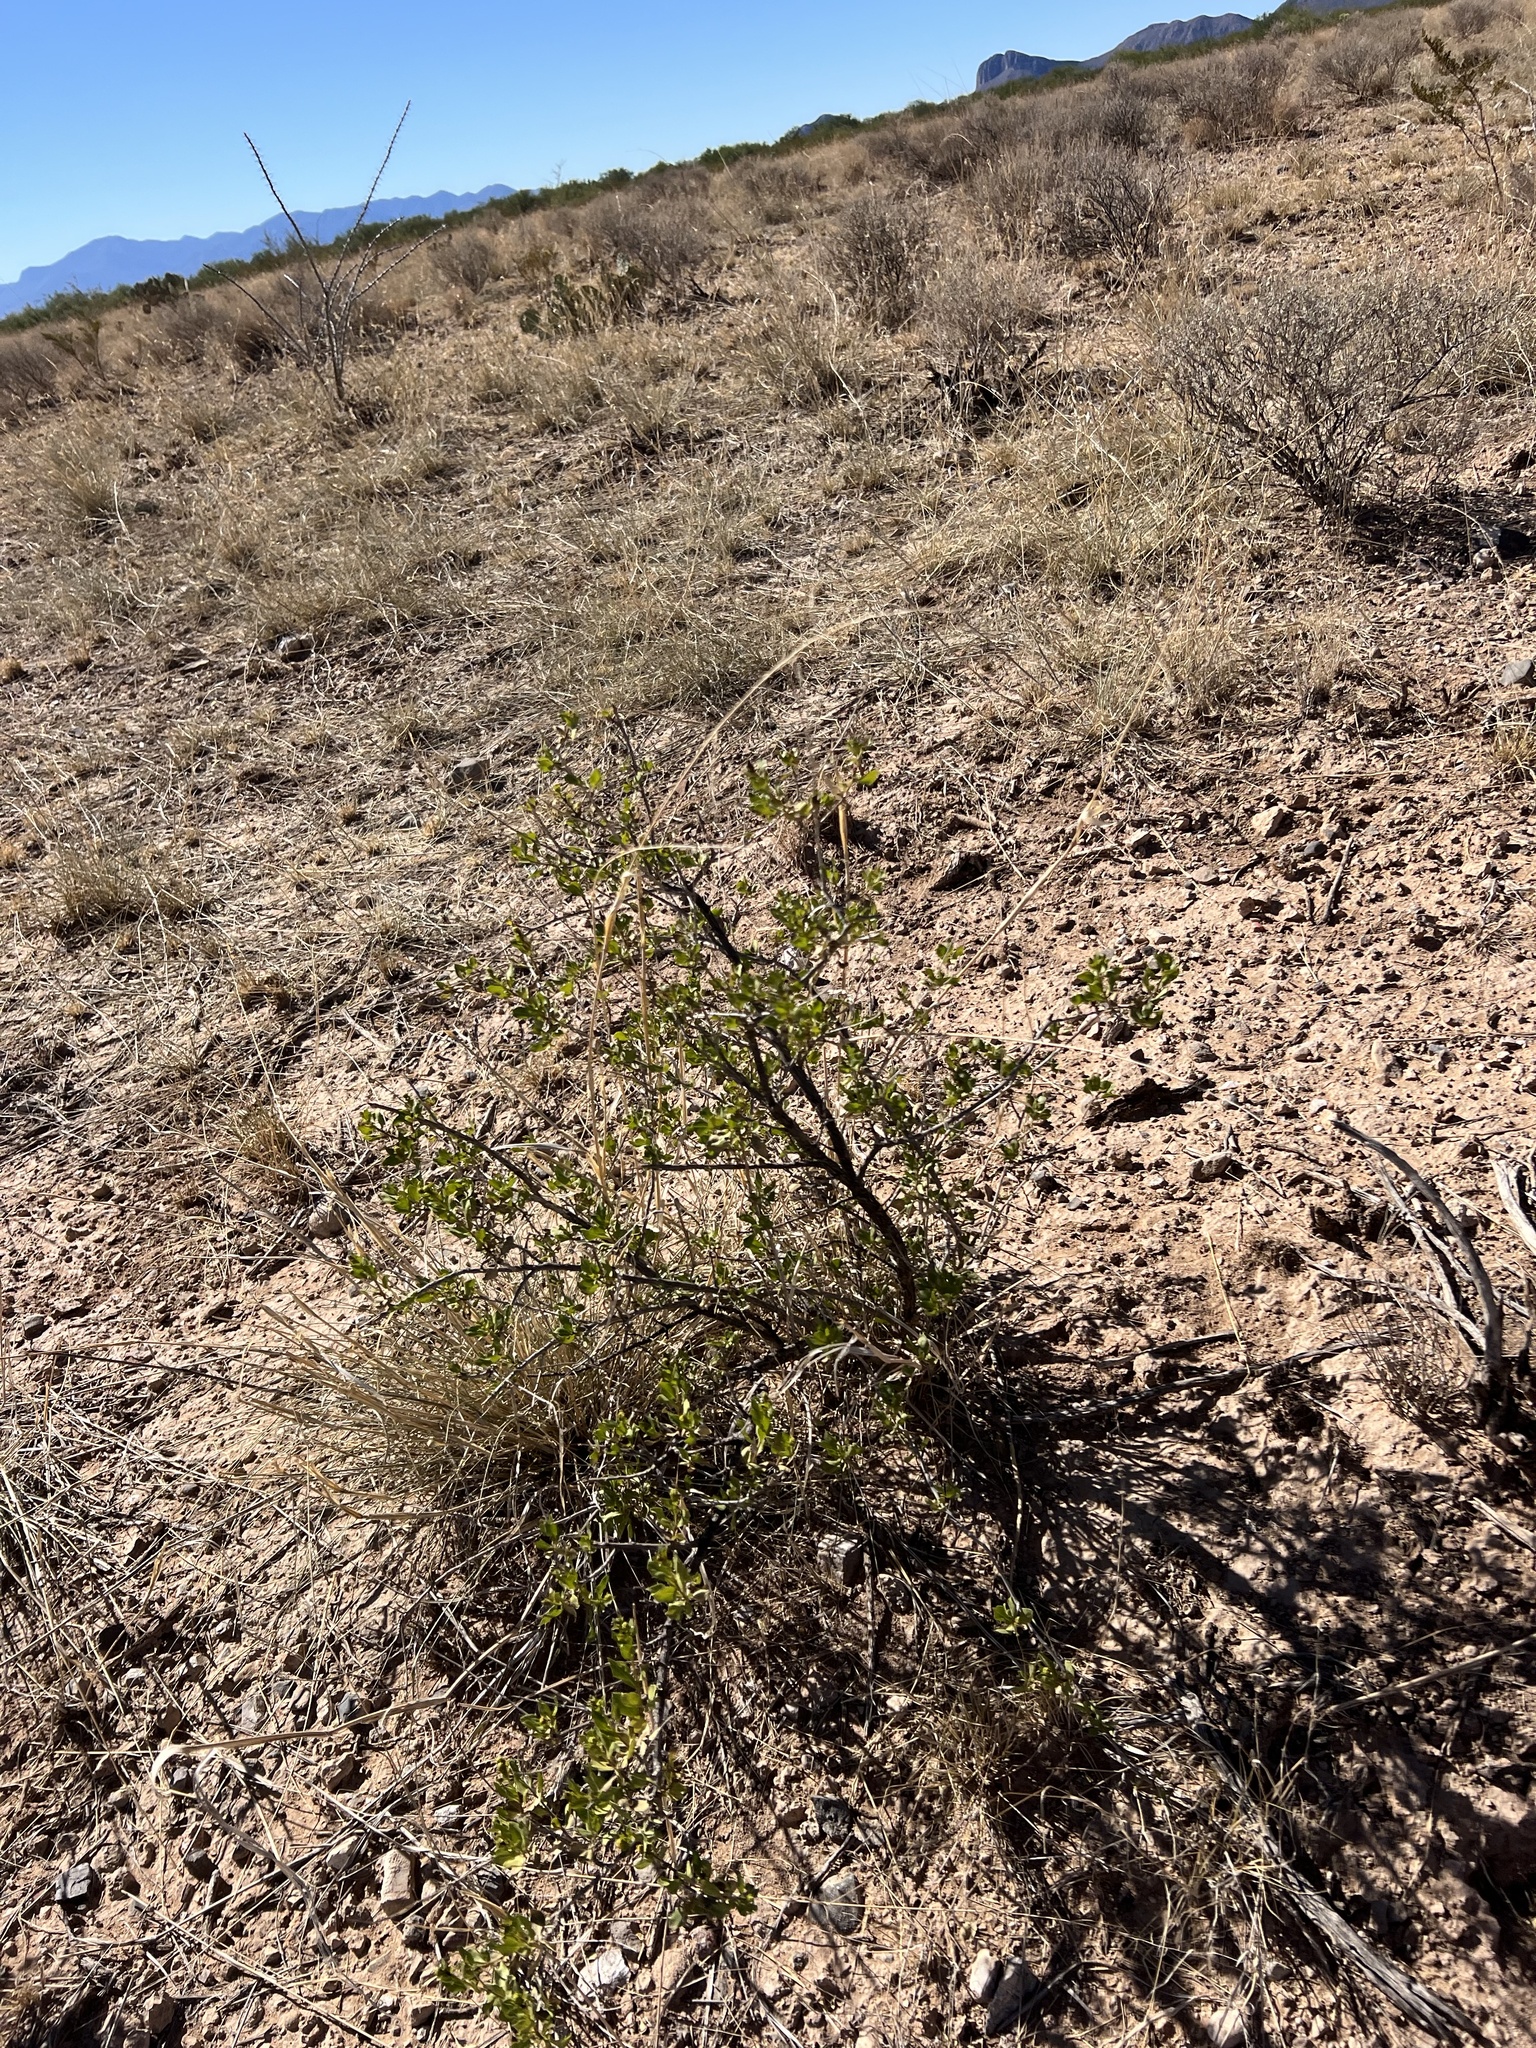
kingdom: Plantae
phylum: Tracheophyta
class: Magnoliopsida
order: Asterales
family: Asteraceae
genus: Flourensia
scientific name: Flourensia cernua
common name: Varnishbush
